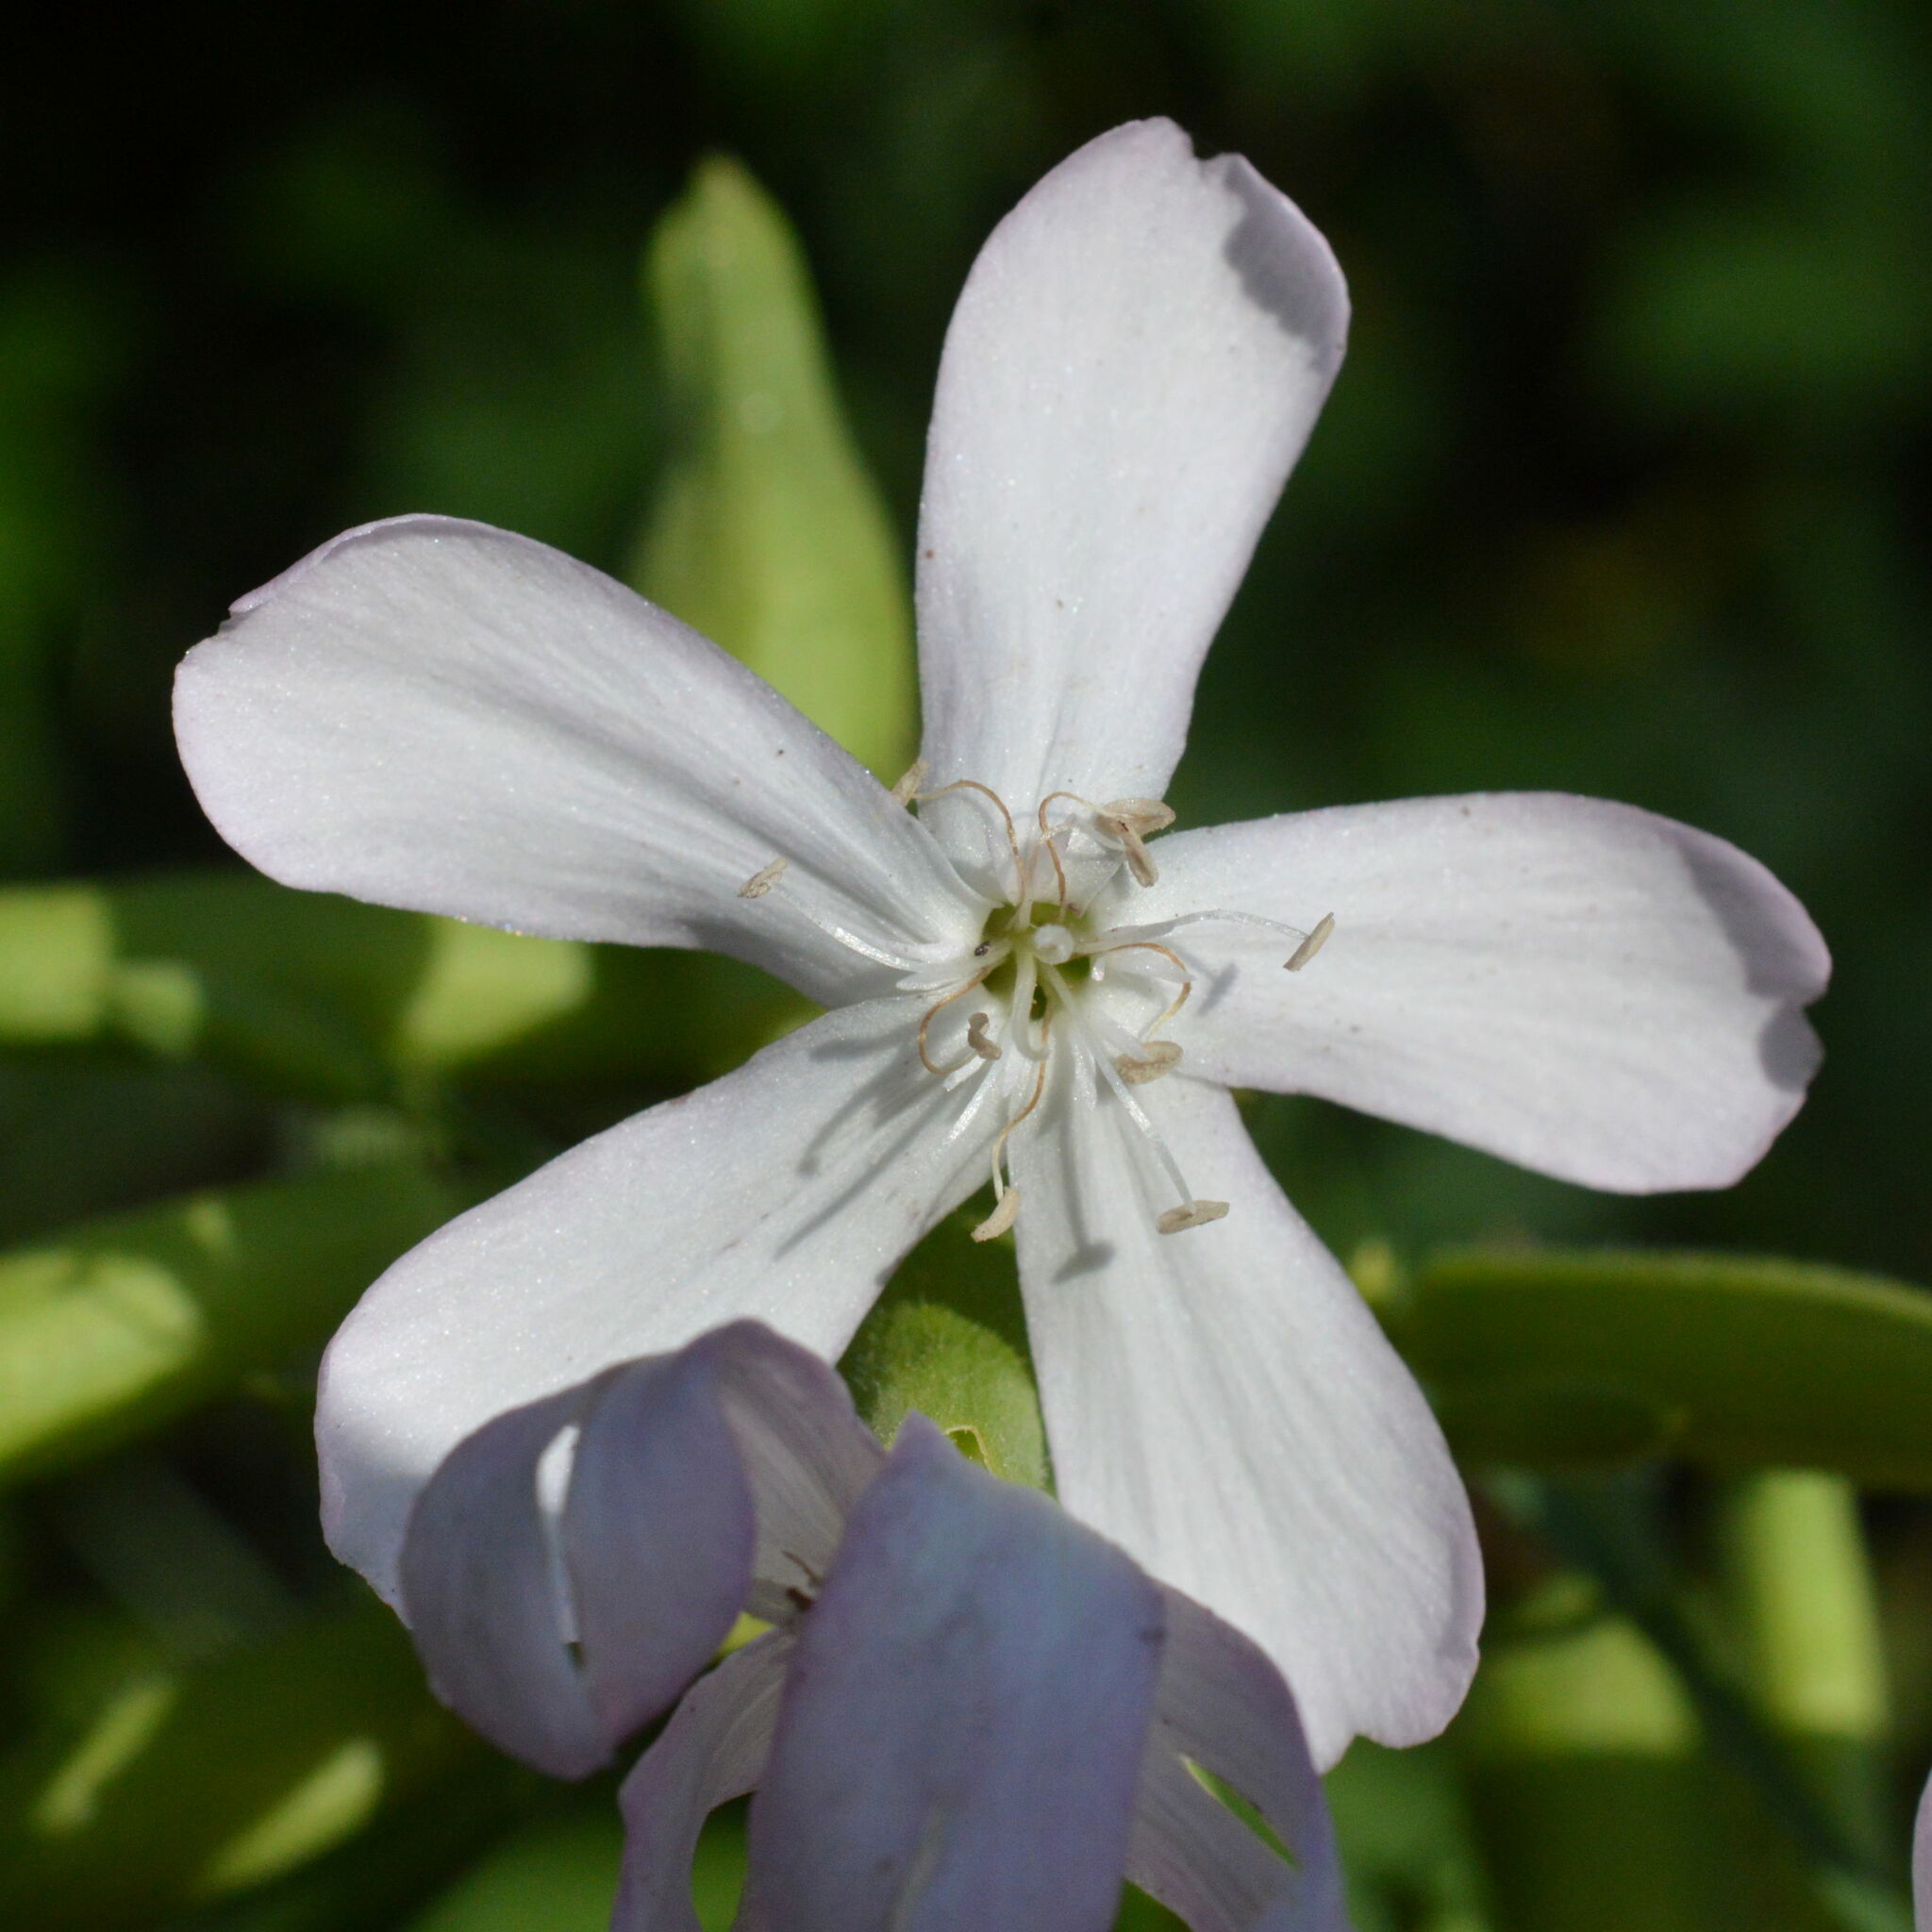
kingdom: Plantae
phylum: Tracheophyta
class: Magnoliopsida
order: Caryophyllales
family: Caryophyllaceae
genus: Saponaria
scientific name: Saponaria officinalis
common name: Soapwort
